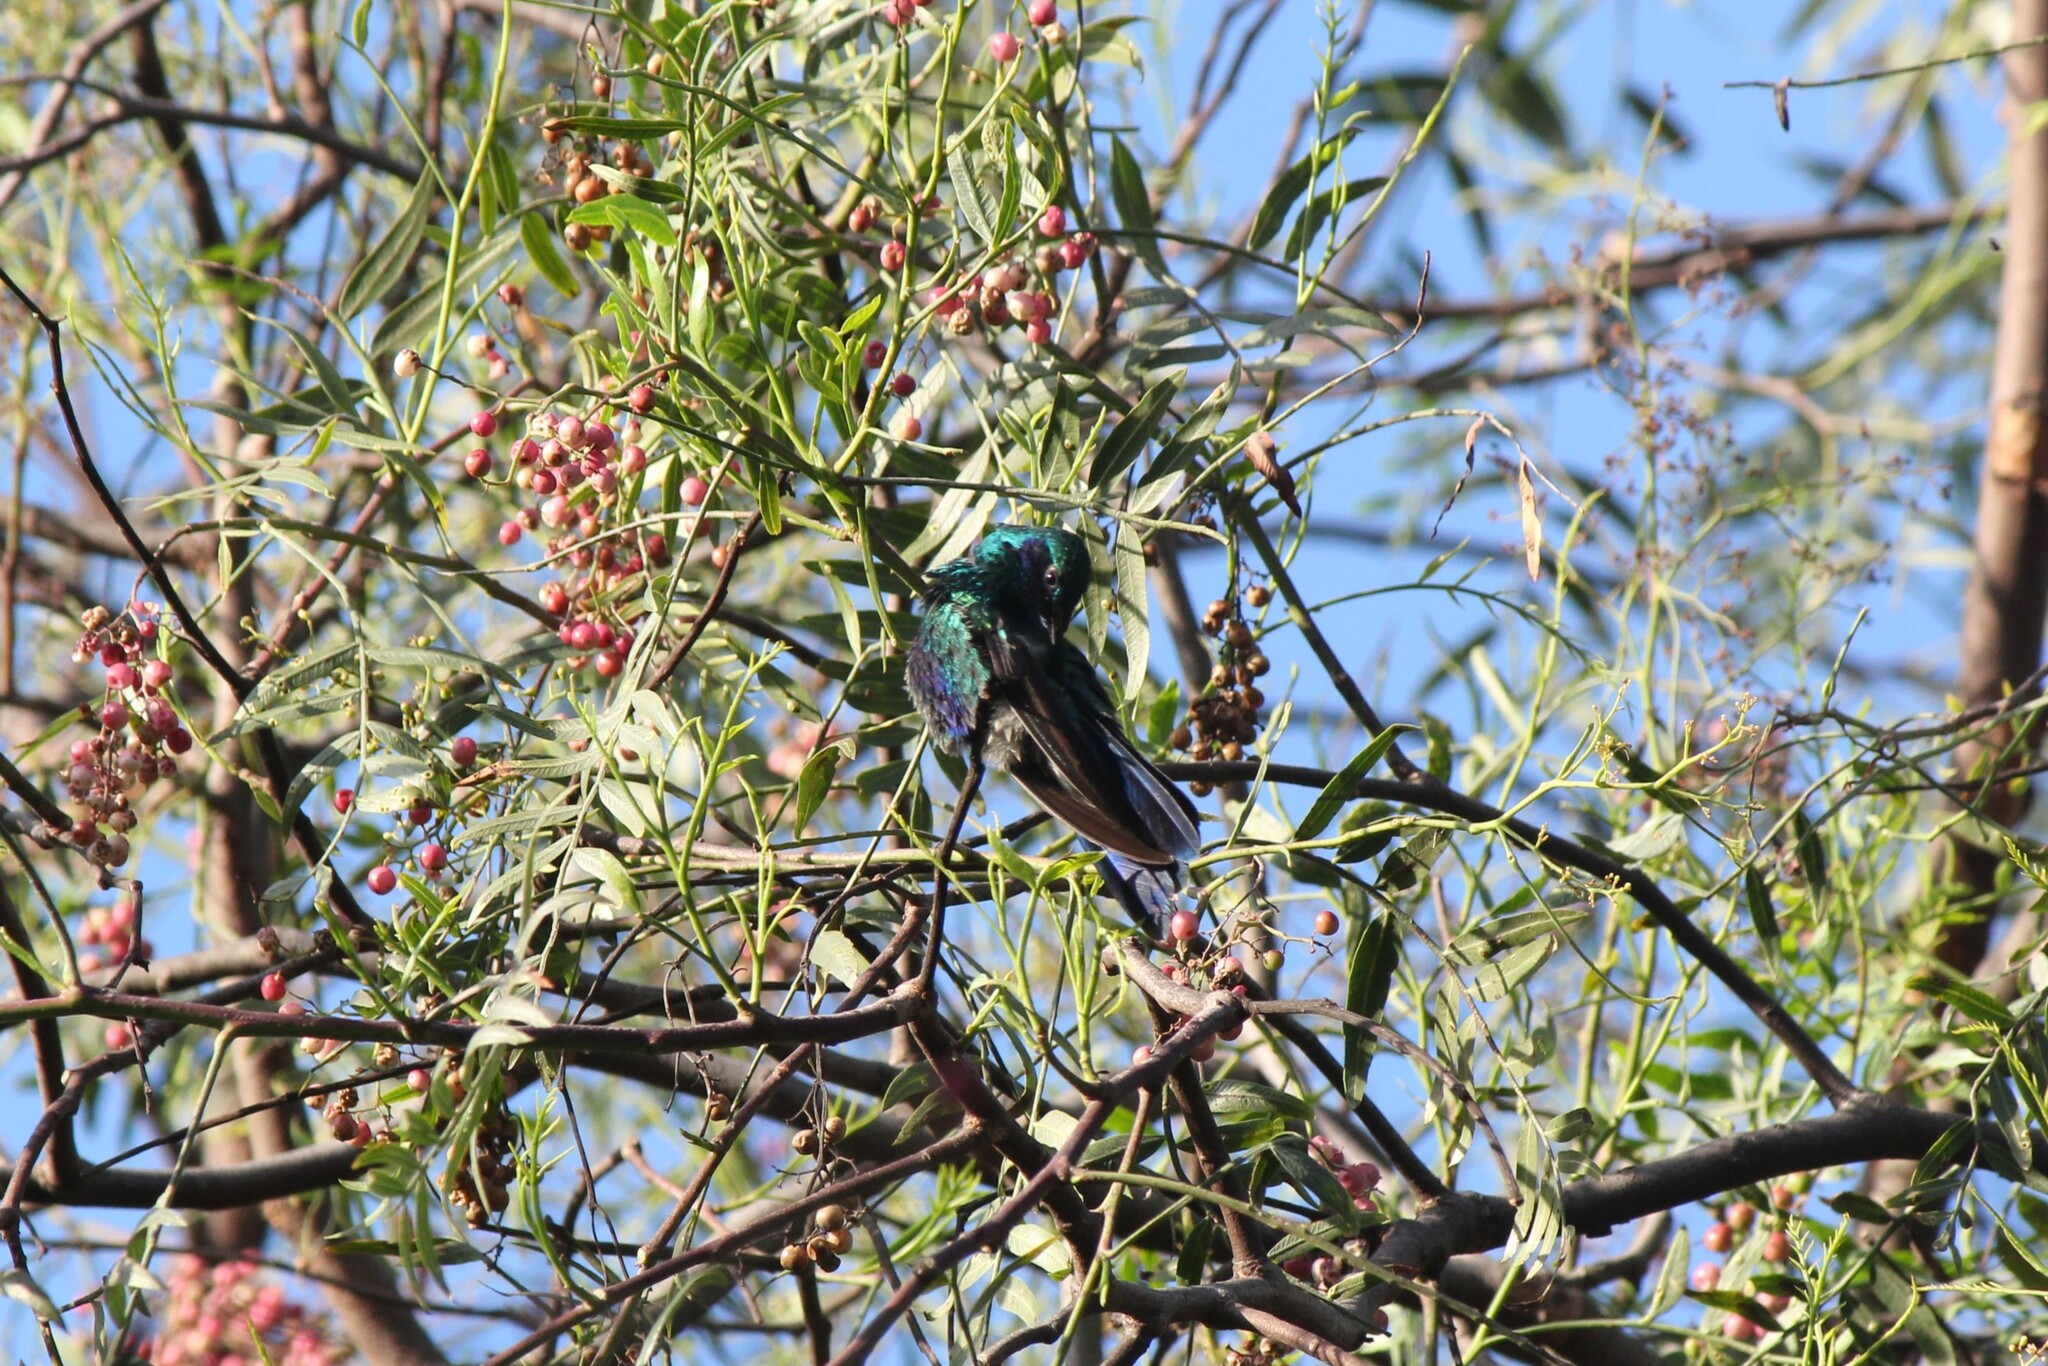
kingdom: Animalia
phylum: Chordata
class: Aves
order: Apodiformes
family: Trochilidae
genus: Colibri
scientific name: Colibri coruscans
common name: Sparkling violetear
